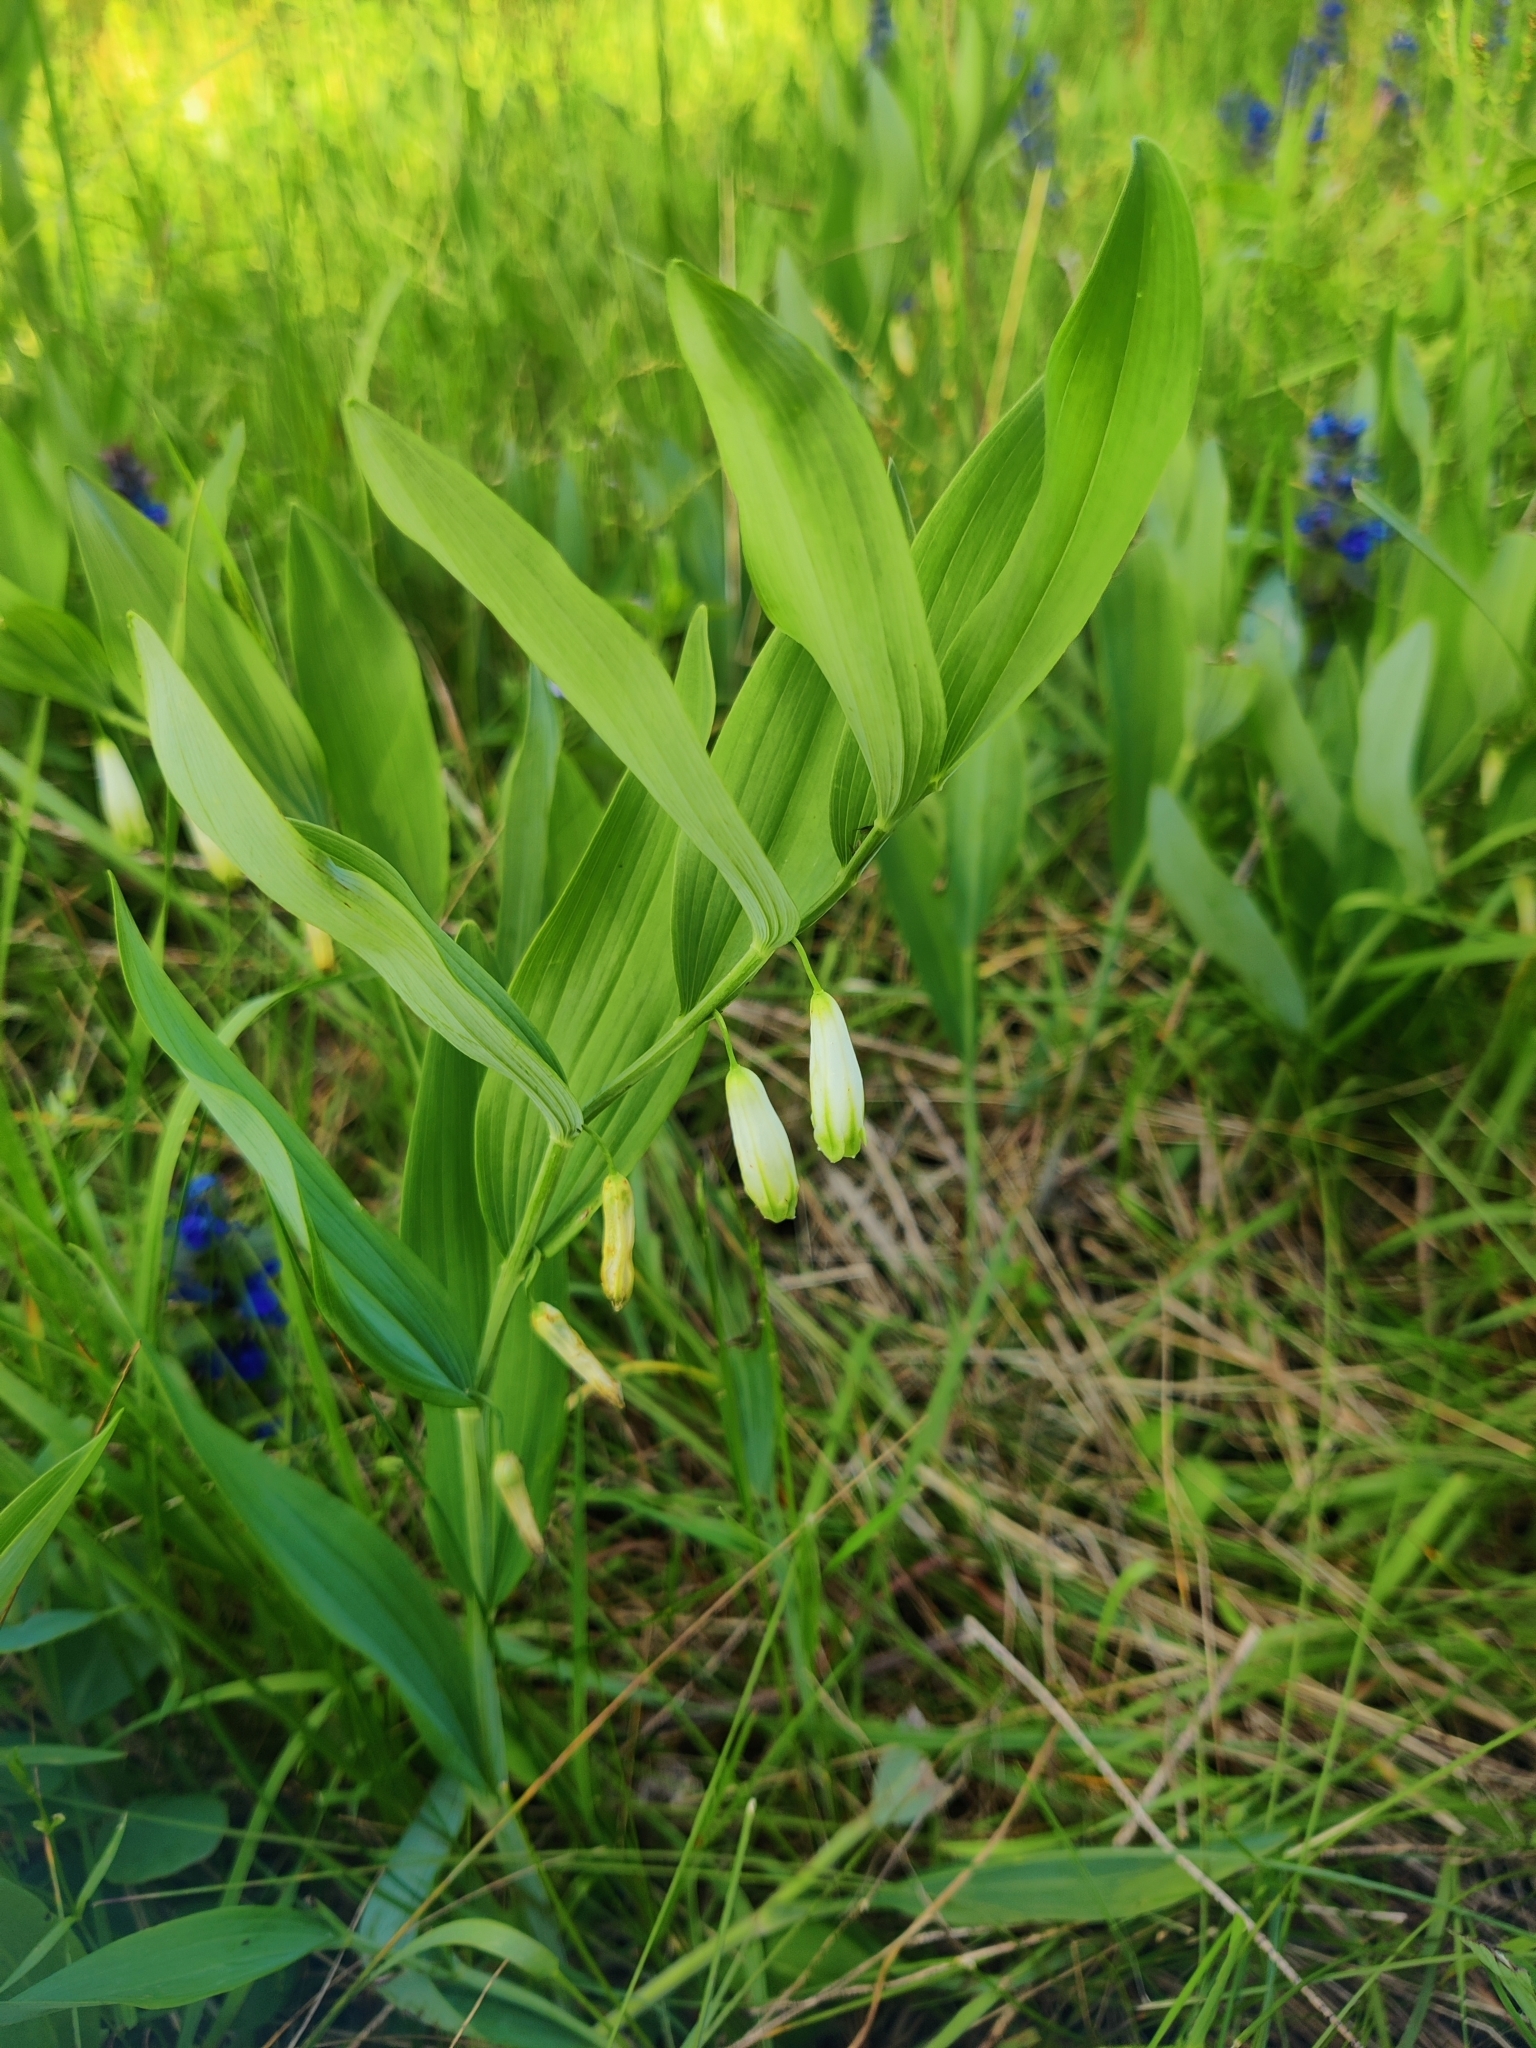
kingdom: Plantae
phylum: Tracheophyta
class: Liliopsida
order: Asparagales
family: Asparagaceae
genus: Polygonatum
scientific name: Polygonatum odoratum
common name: Angular solomon's-seal
